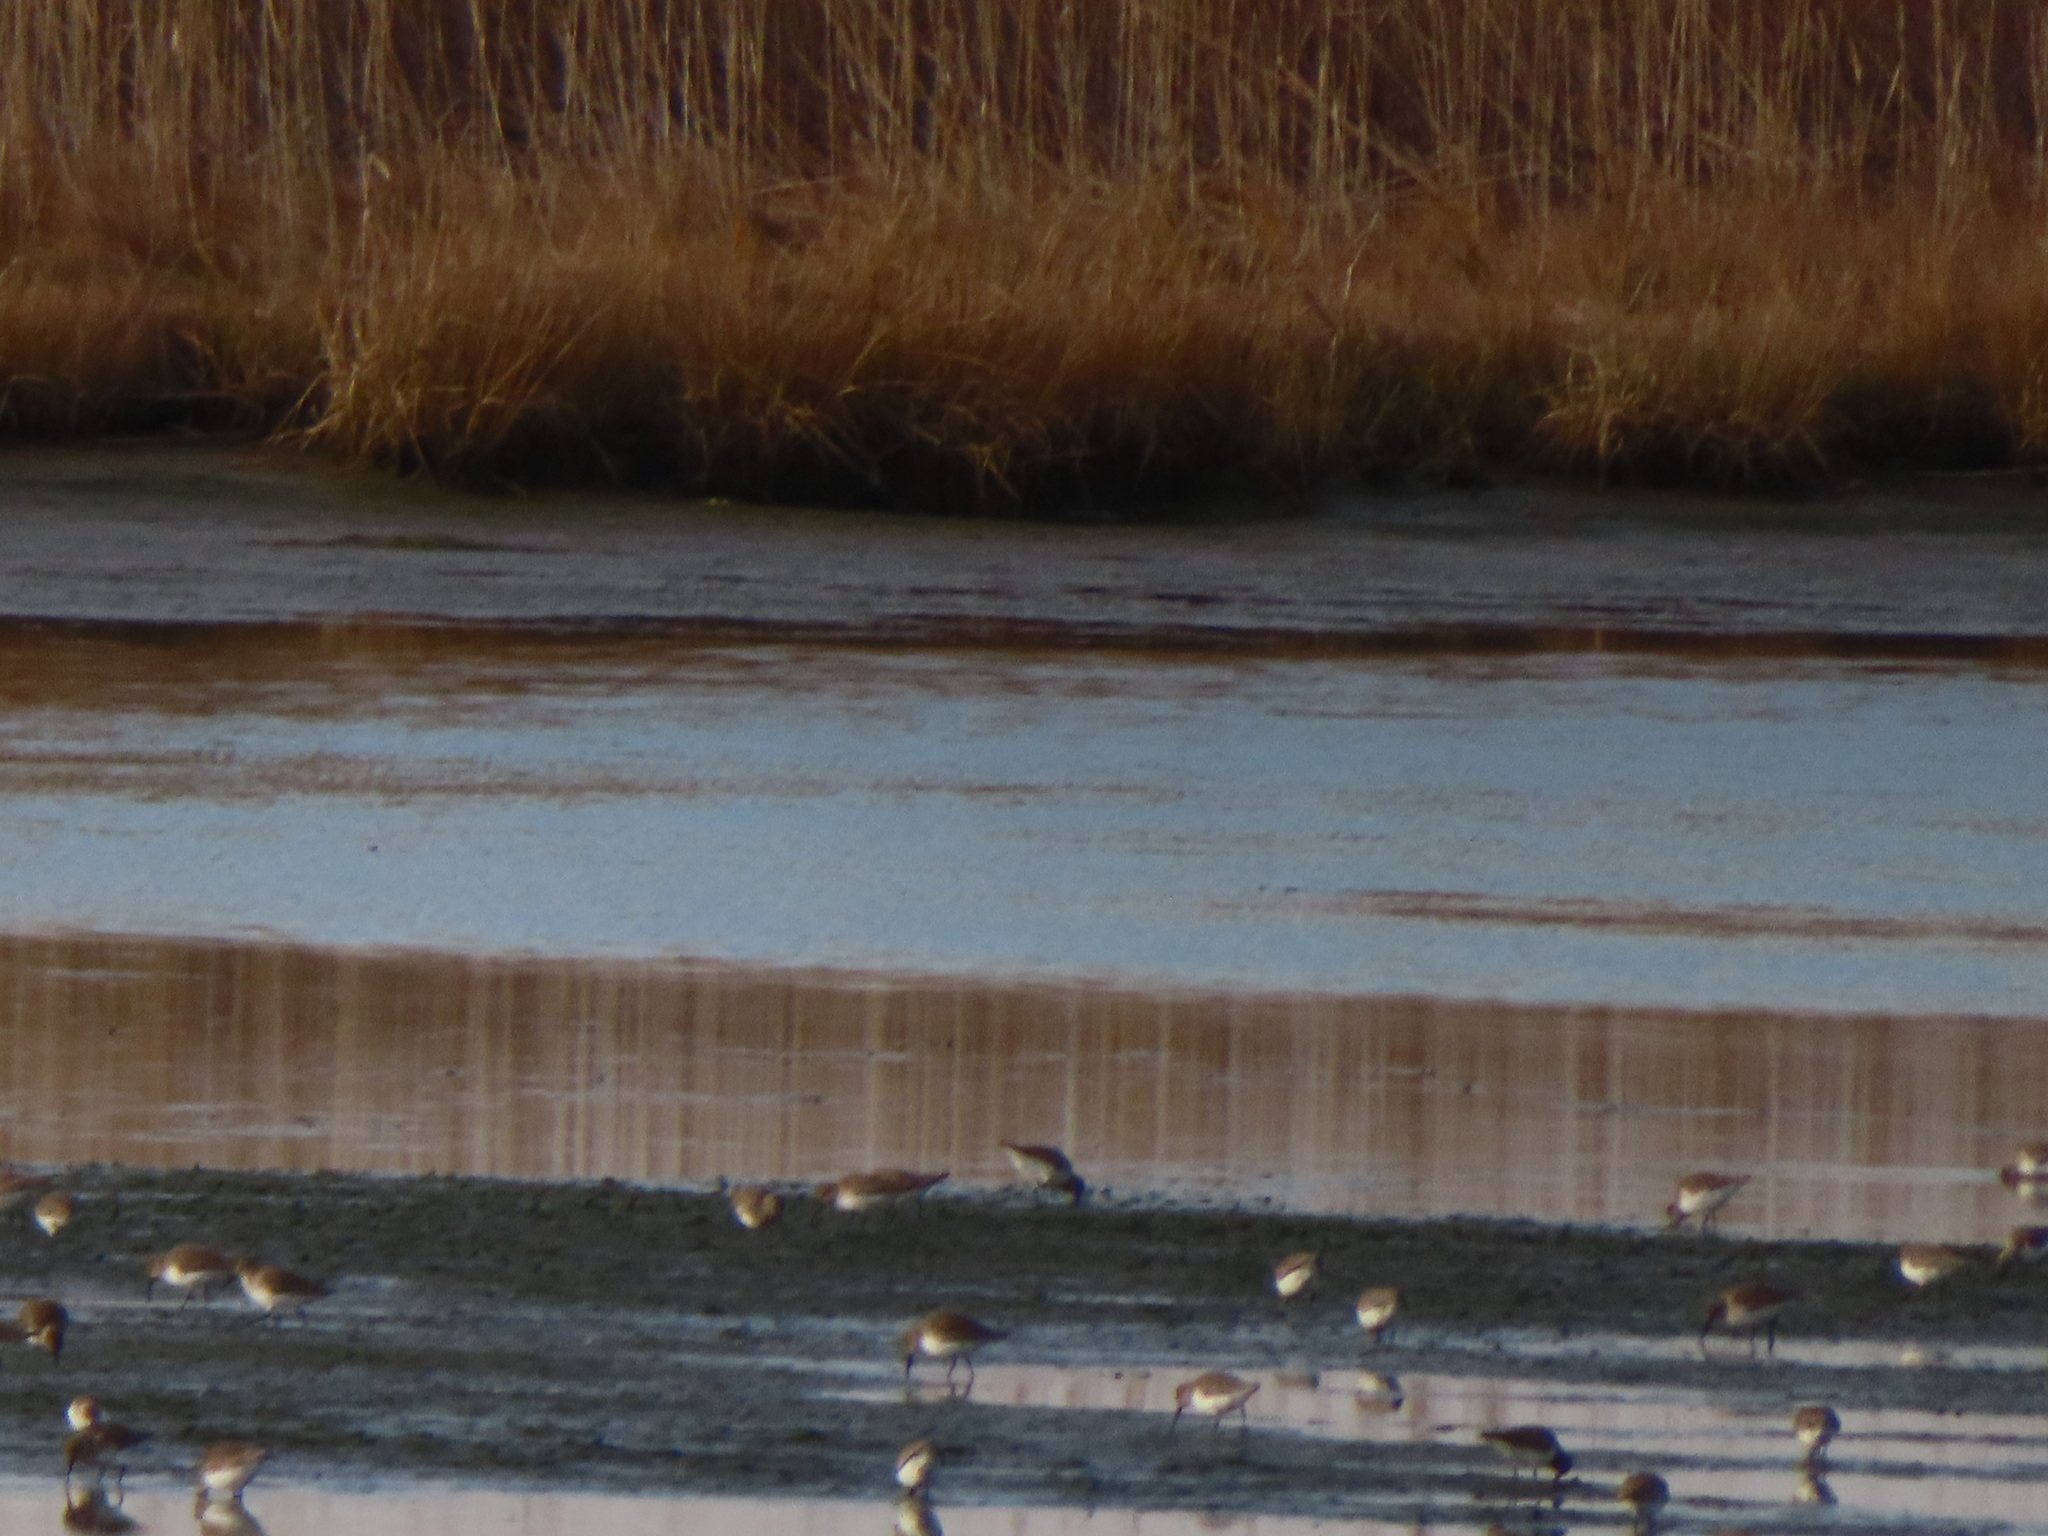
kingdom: Animalia
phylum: Chordata
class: Aves
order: Charadriiformes
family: Scolopacidae
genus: Calidris
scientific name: Calidris alpina
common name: Dunlin
